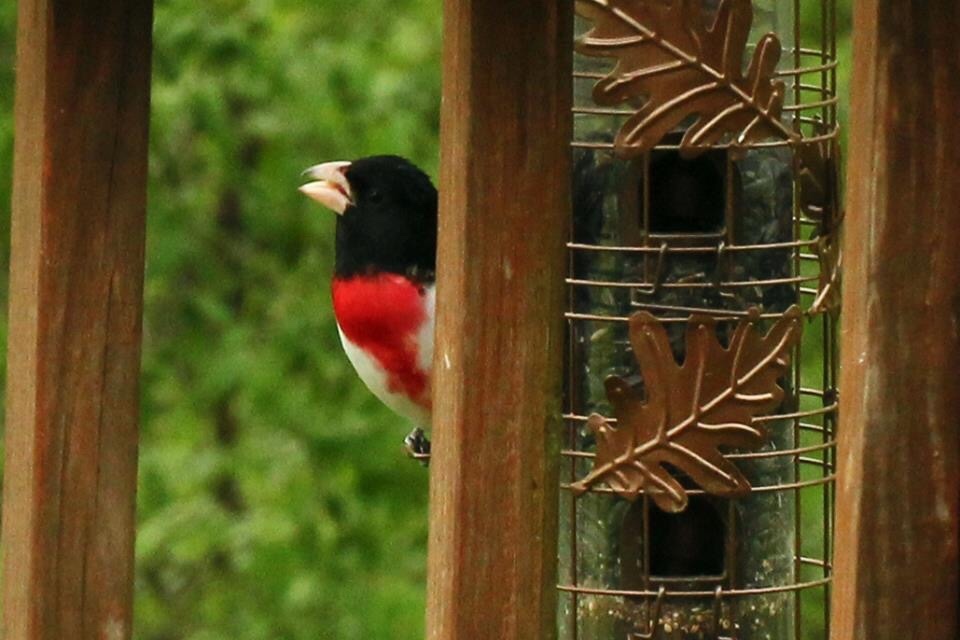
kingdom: Animalia
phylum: Chordata
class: Aves
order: Passeriformes
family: Cardinalidae
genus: Pheucticus
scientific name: Pheucticus ludovicianus
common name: Rose-breasted grosbeak
